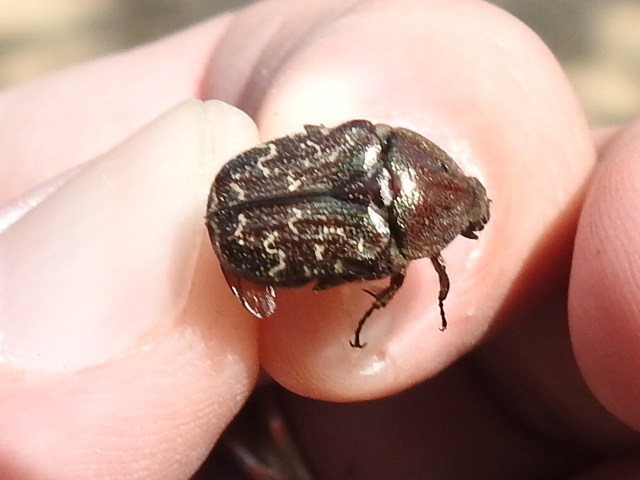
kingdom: Animalia
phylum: Arthropoda
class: Insecta
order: Coleoptera
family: Scarabaeidae
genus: Euphoria
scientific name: Euphoria sepulcralis
